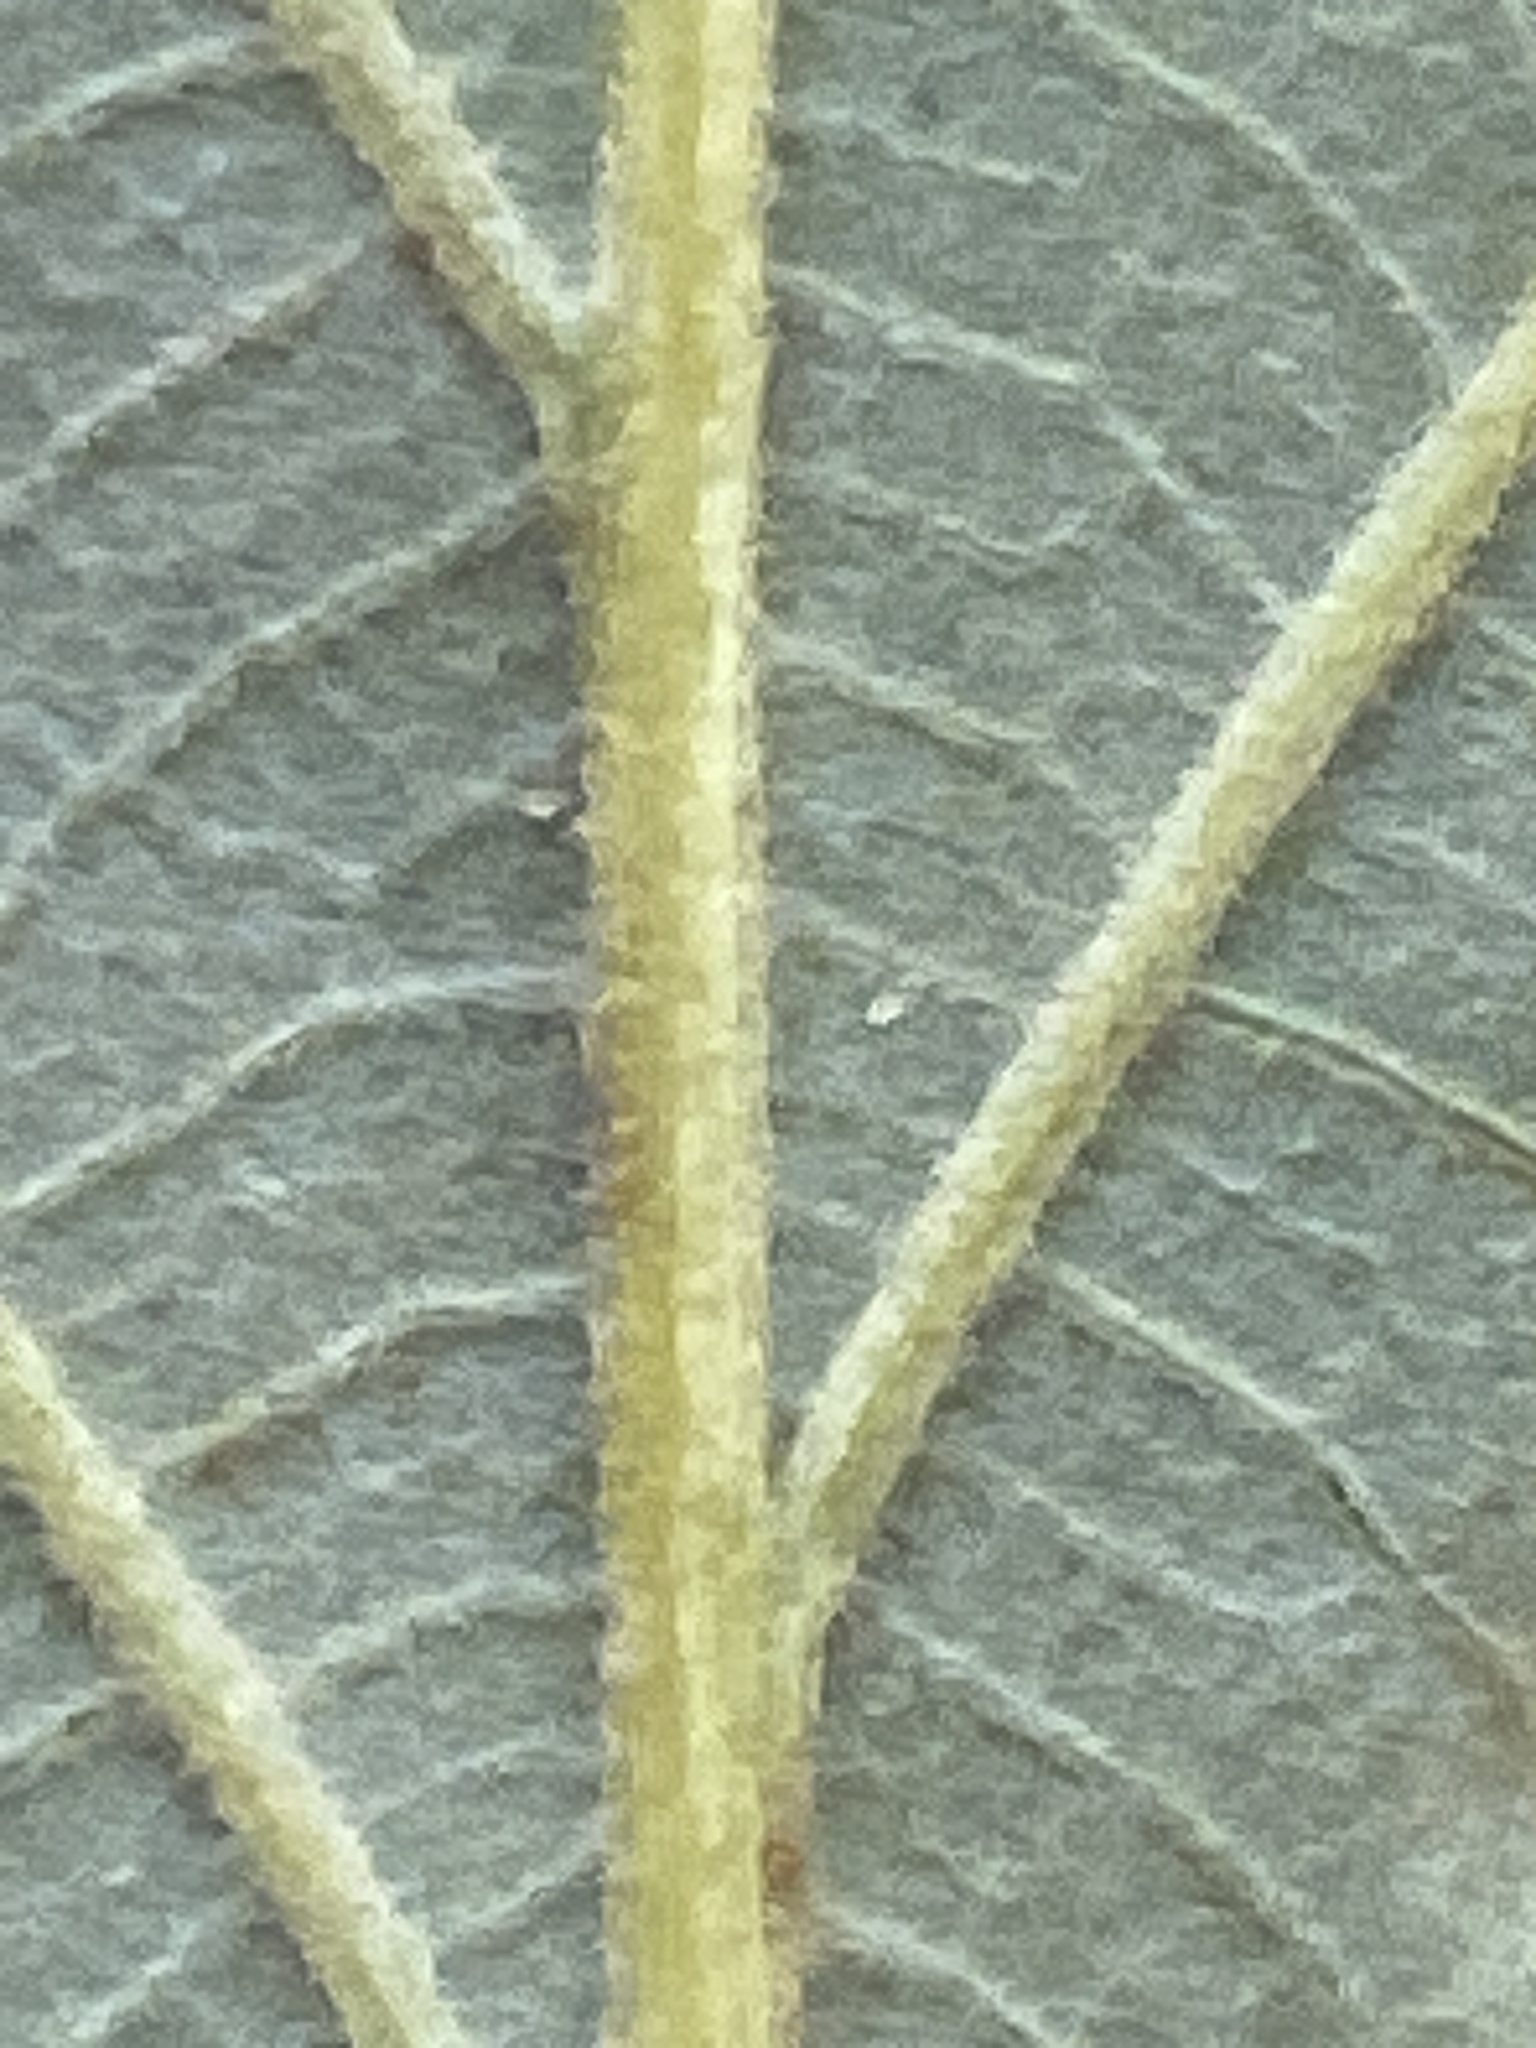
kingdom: Plantae
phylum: Tracheophyta
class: Magnoliopsida
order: Fagales
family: Fagaceae
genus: Quercus
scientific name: Quercus michauxii
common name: Swamp chestnut oak
